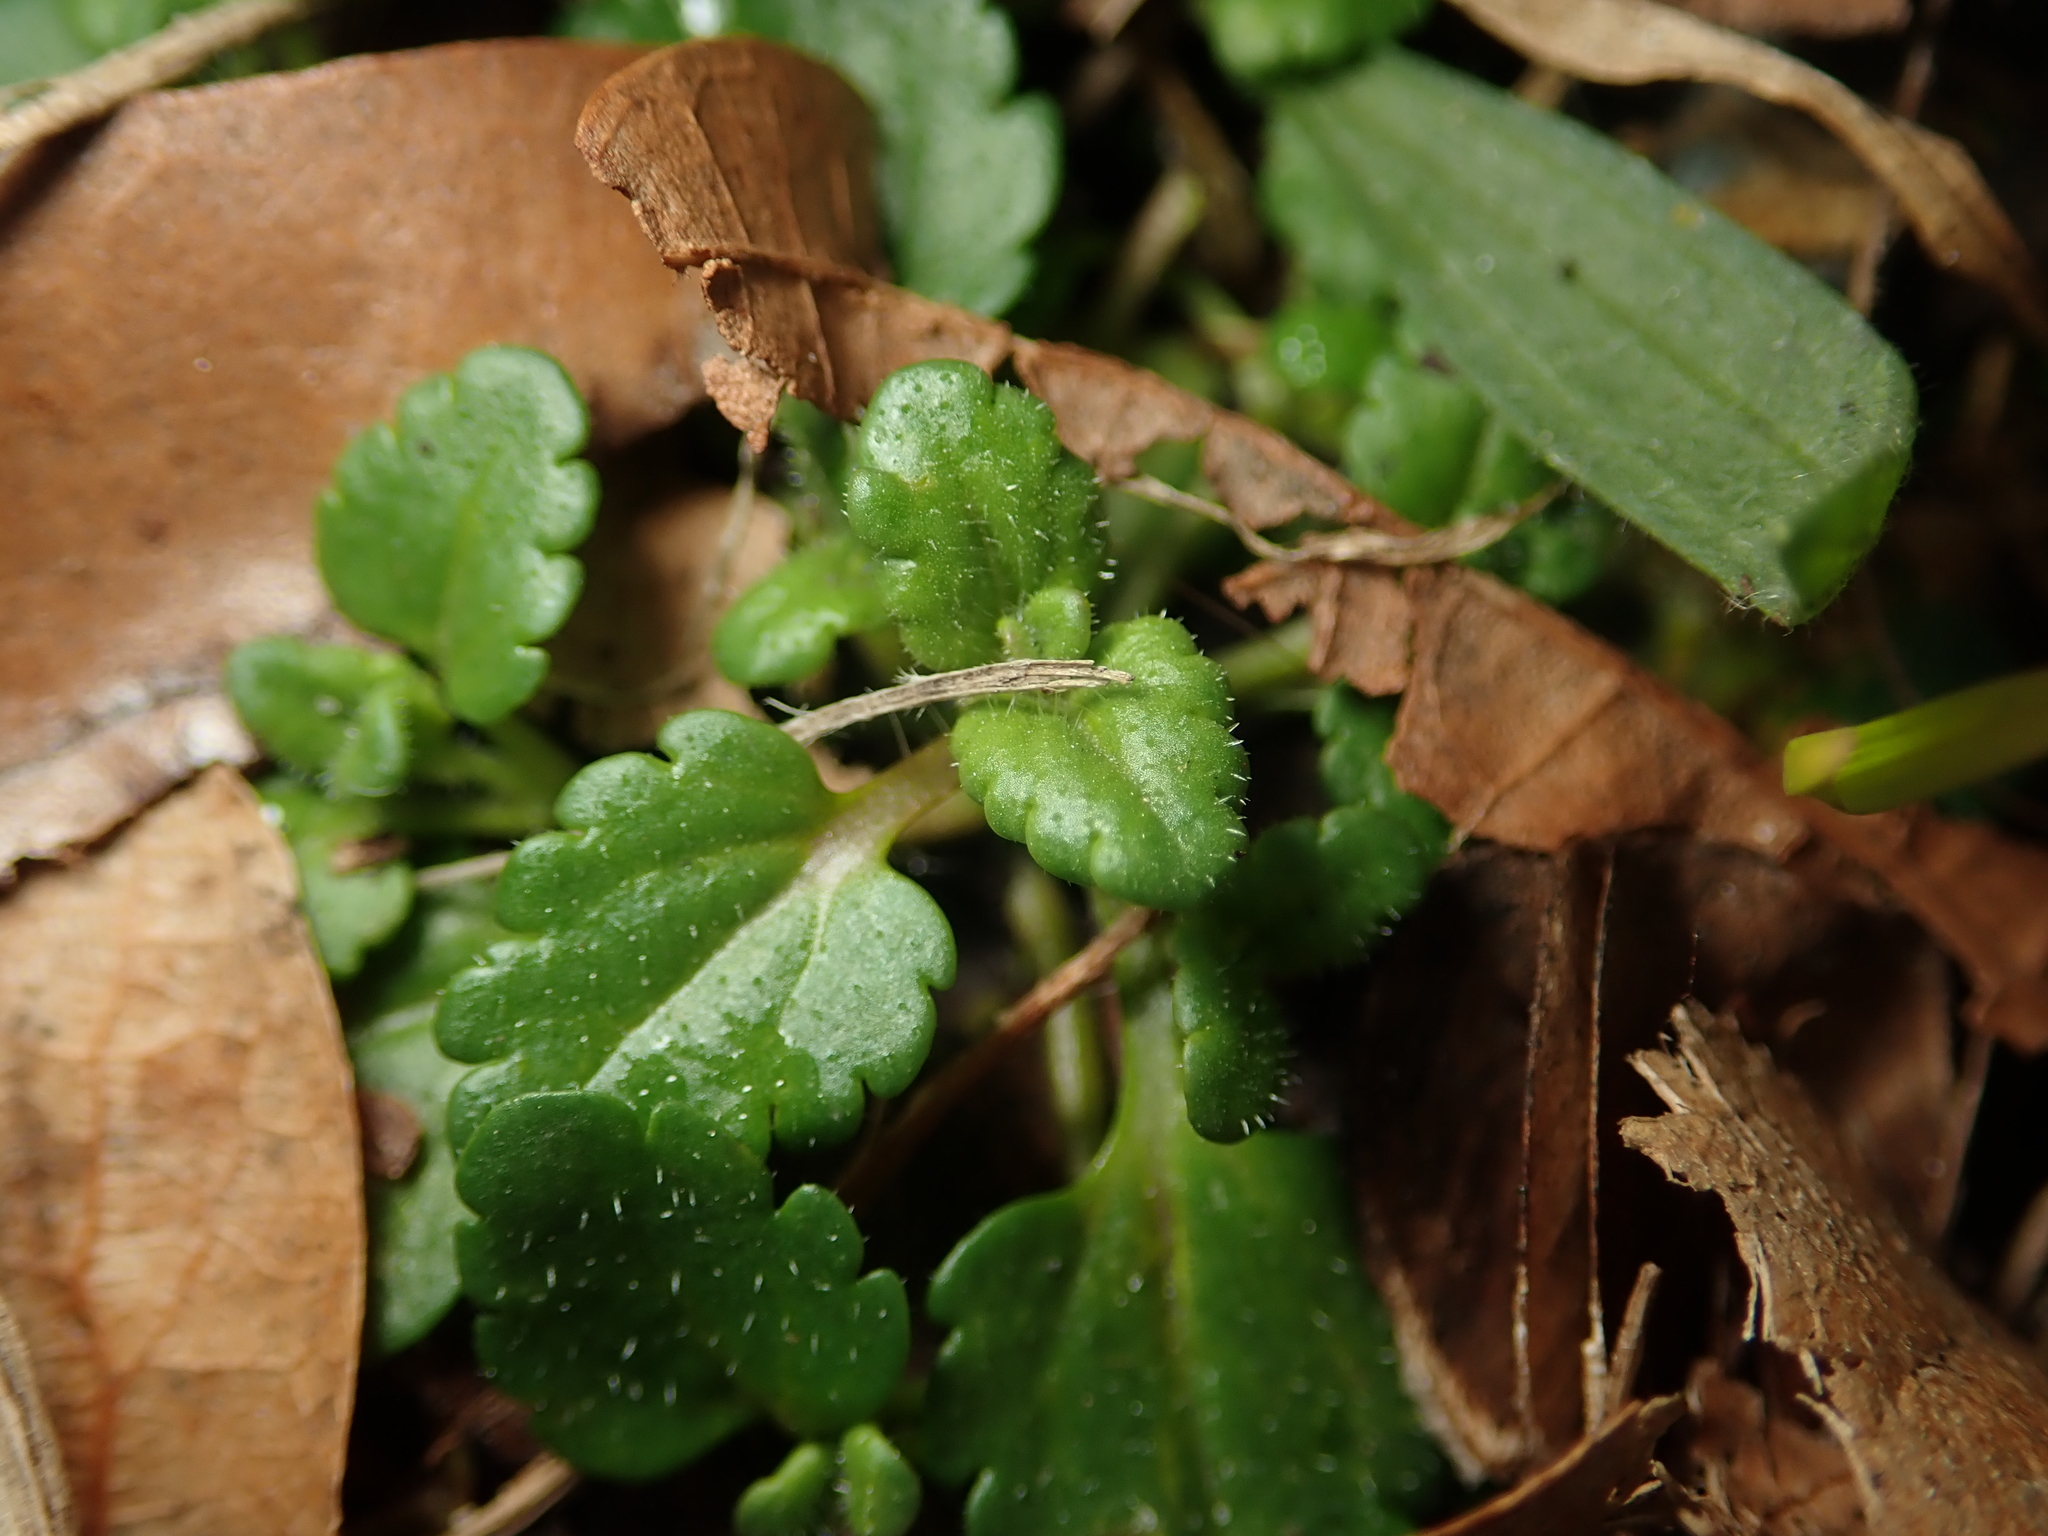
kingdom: Plantae
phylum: Tracheophyta
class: Magnoliopsida
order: Lamiales
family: Plantaginaceae
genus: Veronica
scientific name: Veronica persica
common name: Common field-speedwell
